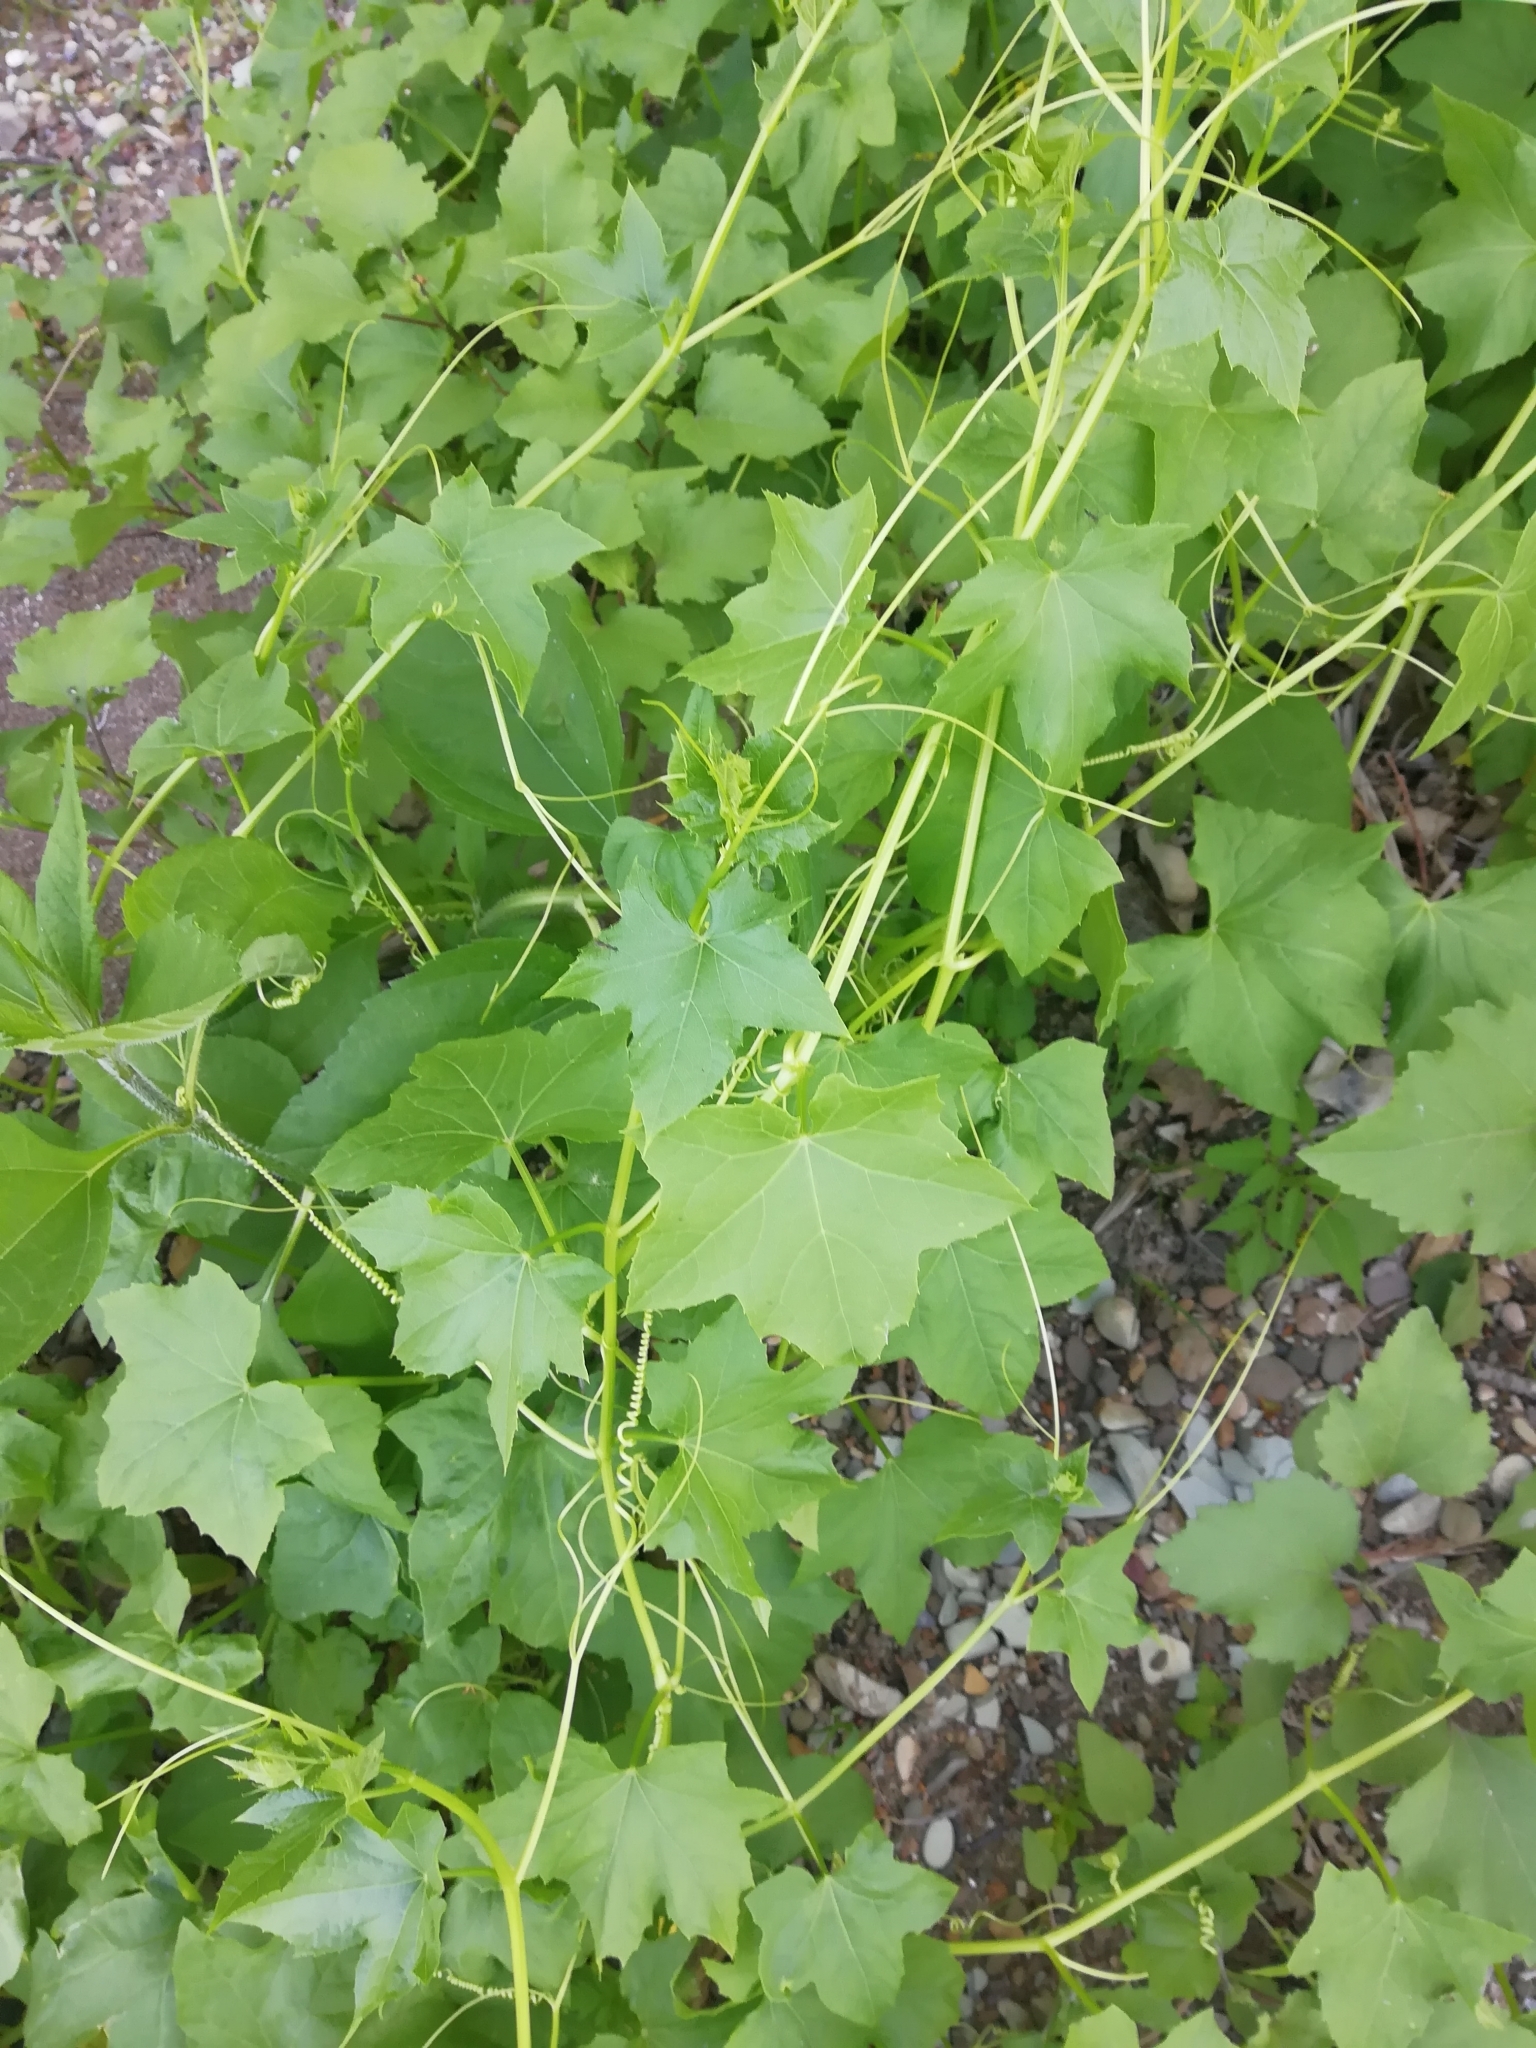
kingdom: Plantae
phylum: Tracheophyta
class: Magnoliopsida
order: Cucurbitales
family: Cucurbitaceae
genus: Echinocystis
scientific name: Echinocystis lobata
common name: Wild cucumber
